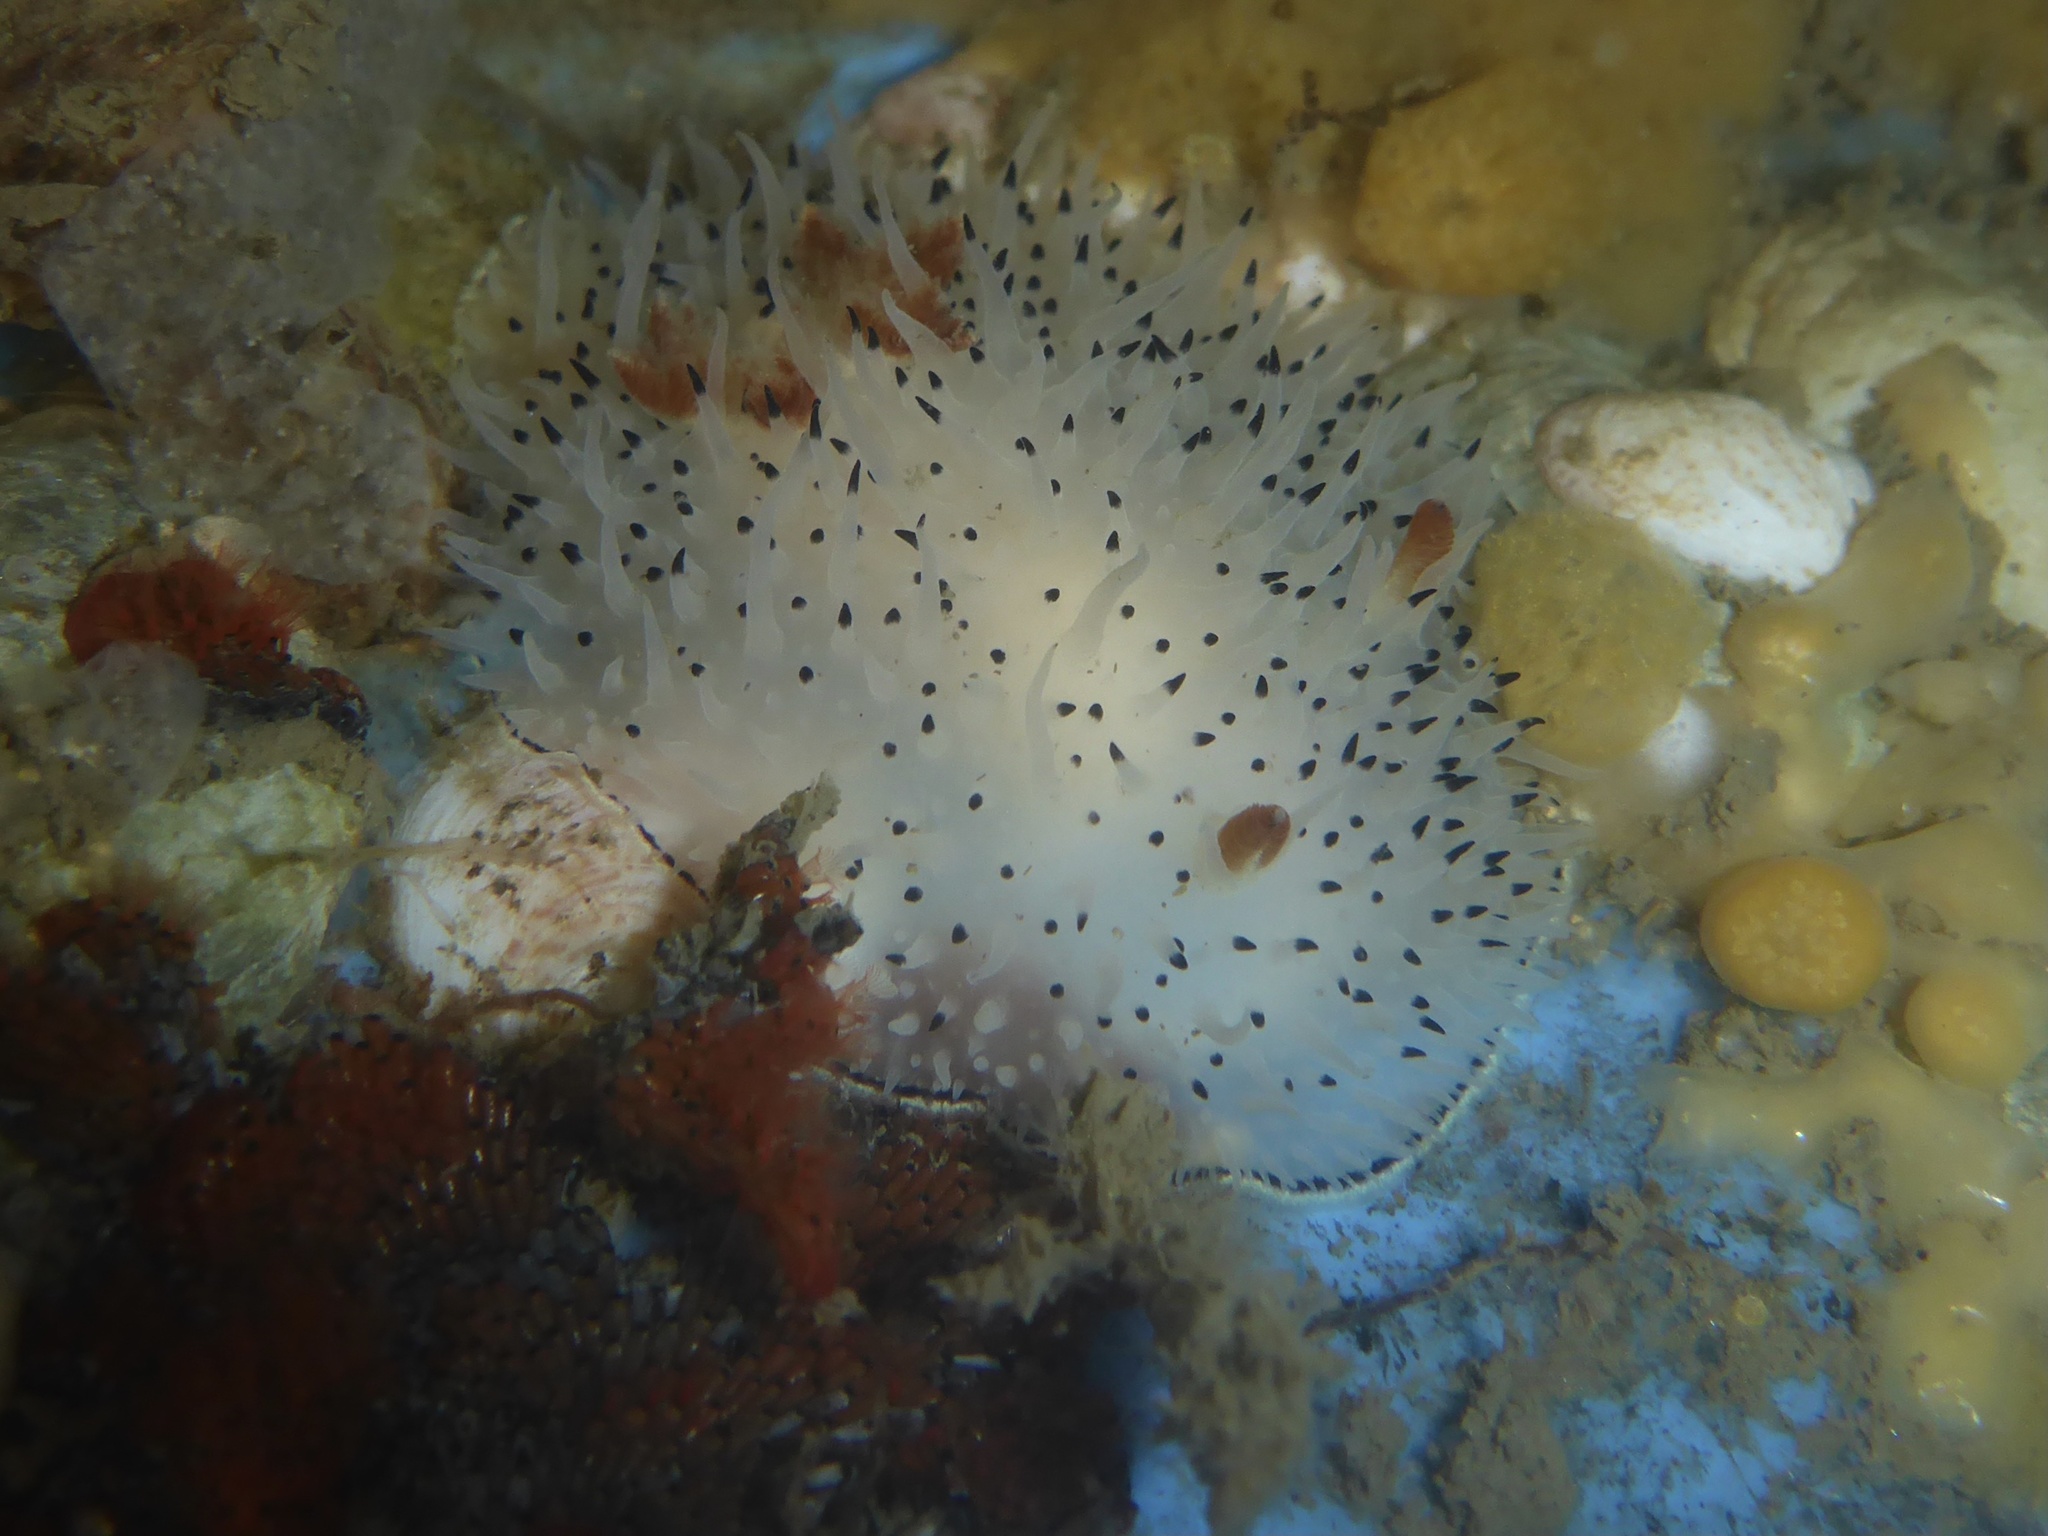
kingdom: Animalia
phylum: Mollusca
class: Gastropoda
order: Nudibranchia
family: Onchidorididae
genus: Acanthodoris
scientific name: Acanthodoris rhodoceras
